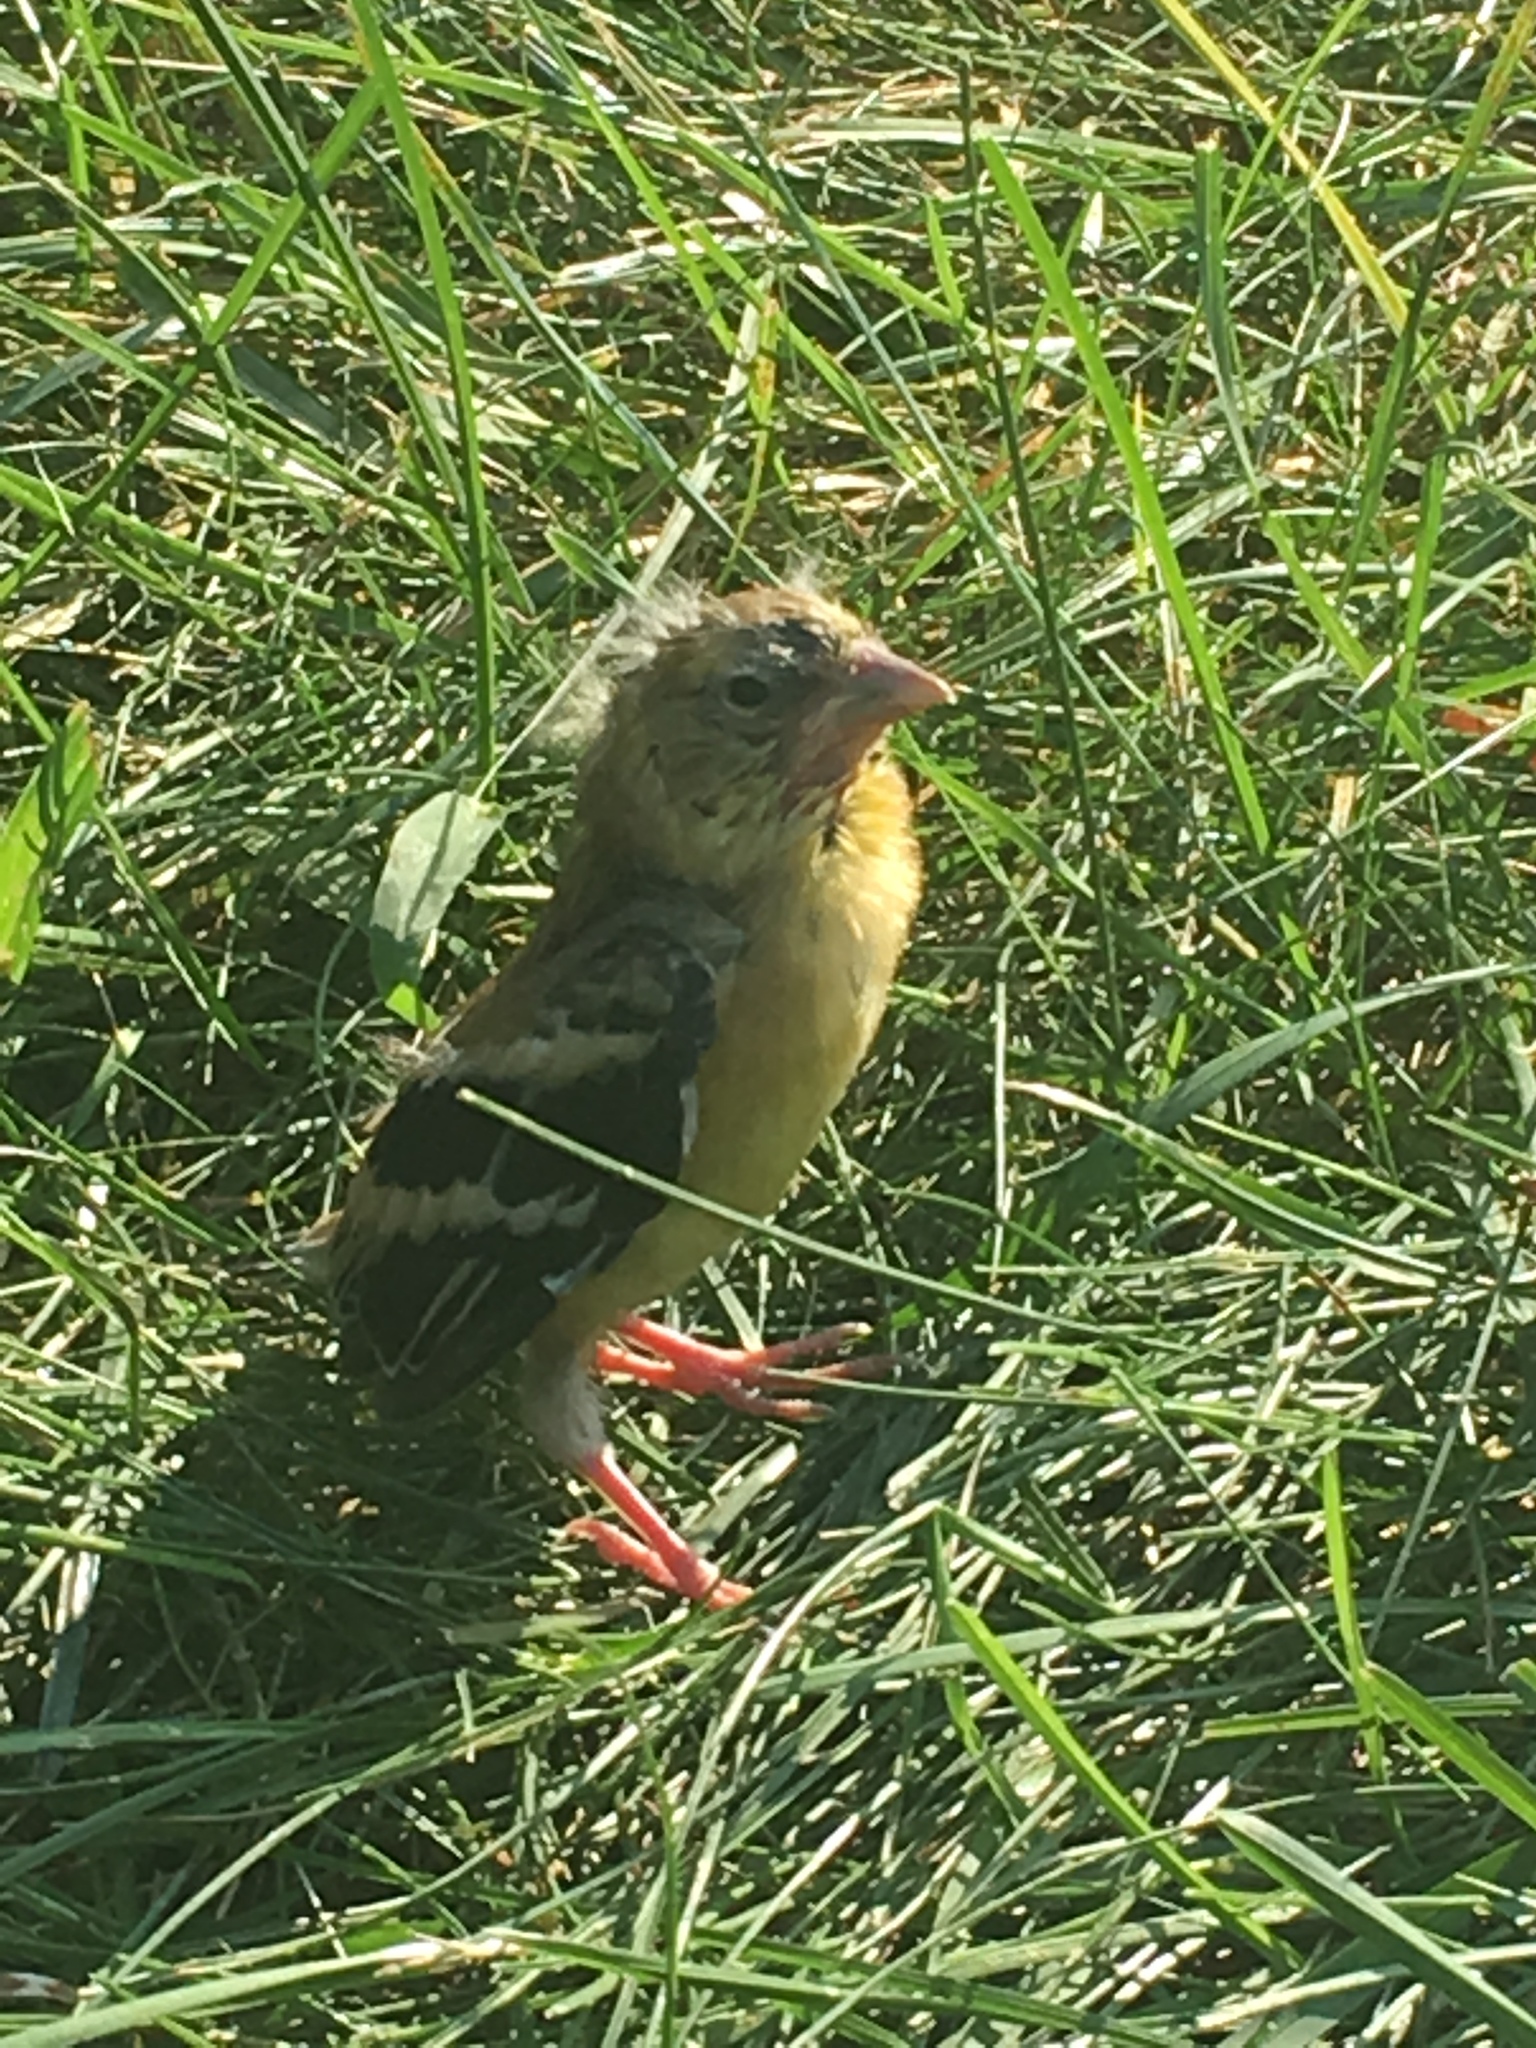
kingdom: Animalia
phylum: Chordata
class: Aves
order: Passeriformes
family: Fringillidae
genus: Spinus
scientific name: Spinus tristis
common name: American goldfinch
